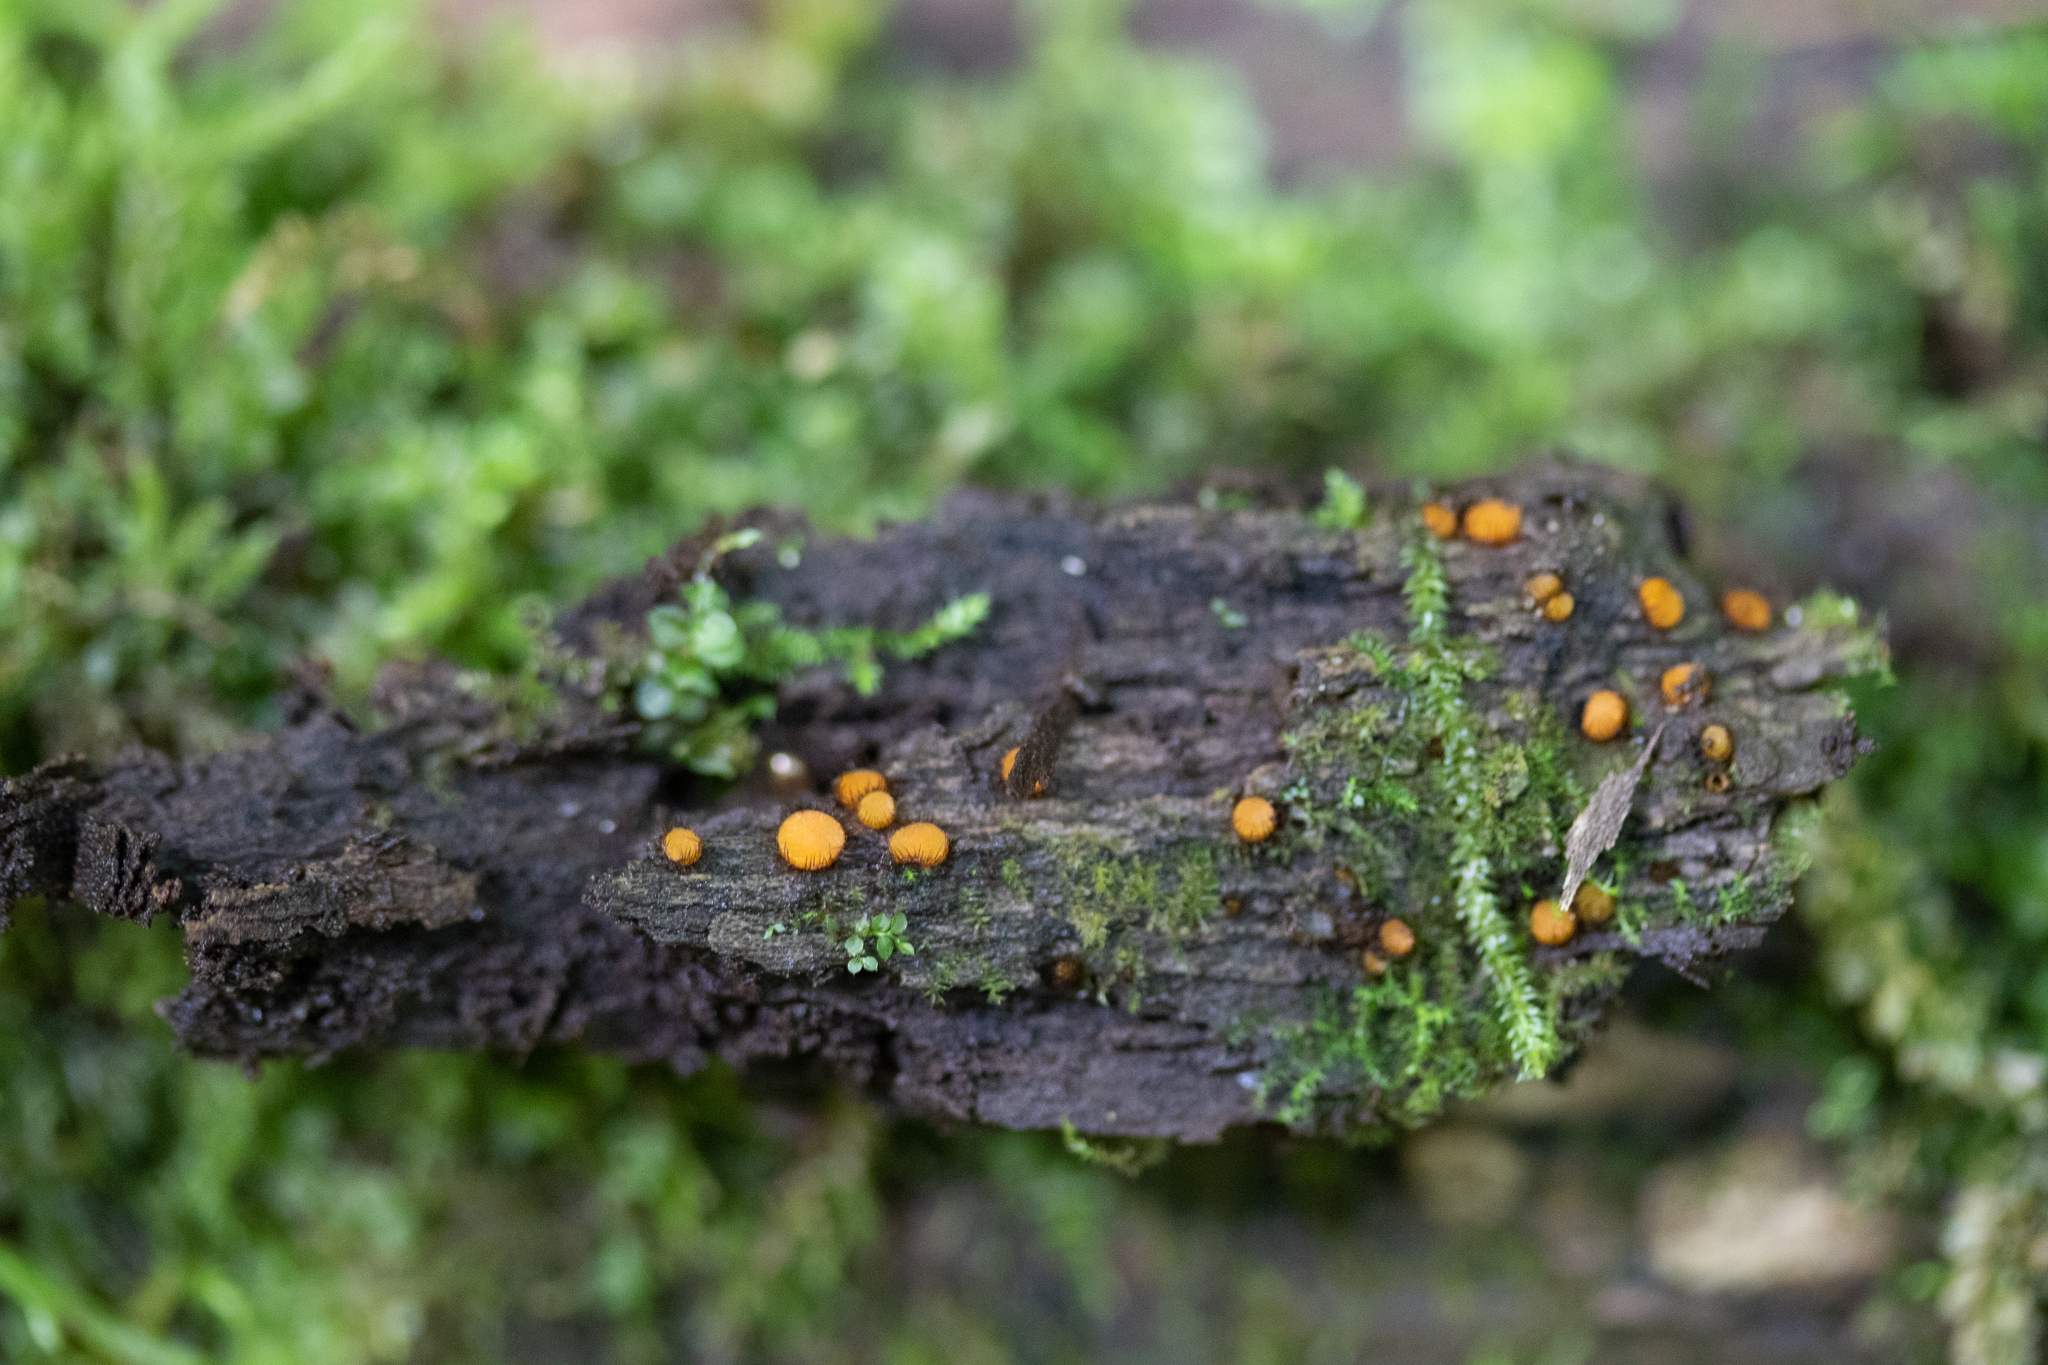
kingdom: Fungi
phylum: Ascomycota
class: Pezizomycetes
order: Pezizales
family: Pyronemataceae
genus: Scutellinia
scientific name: Scutellinia setosa
